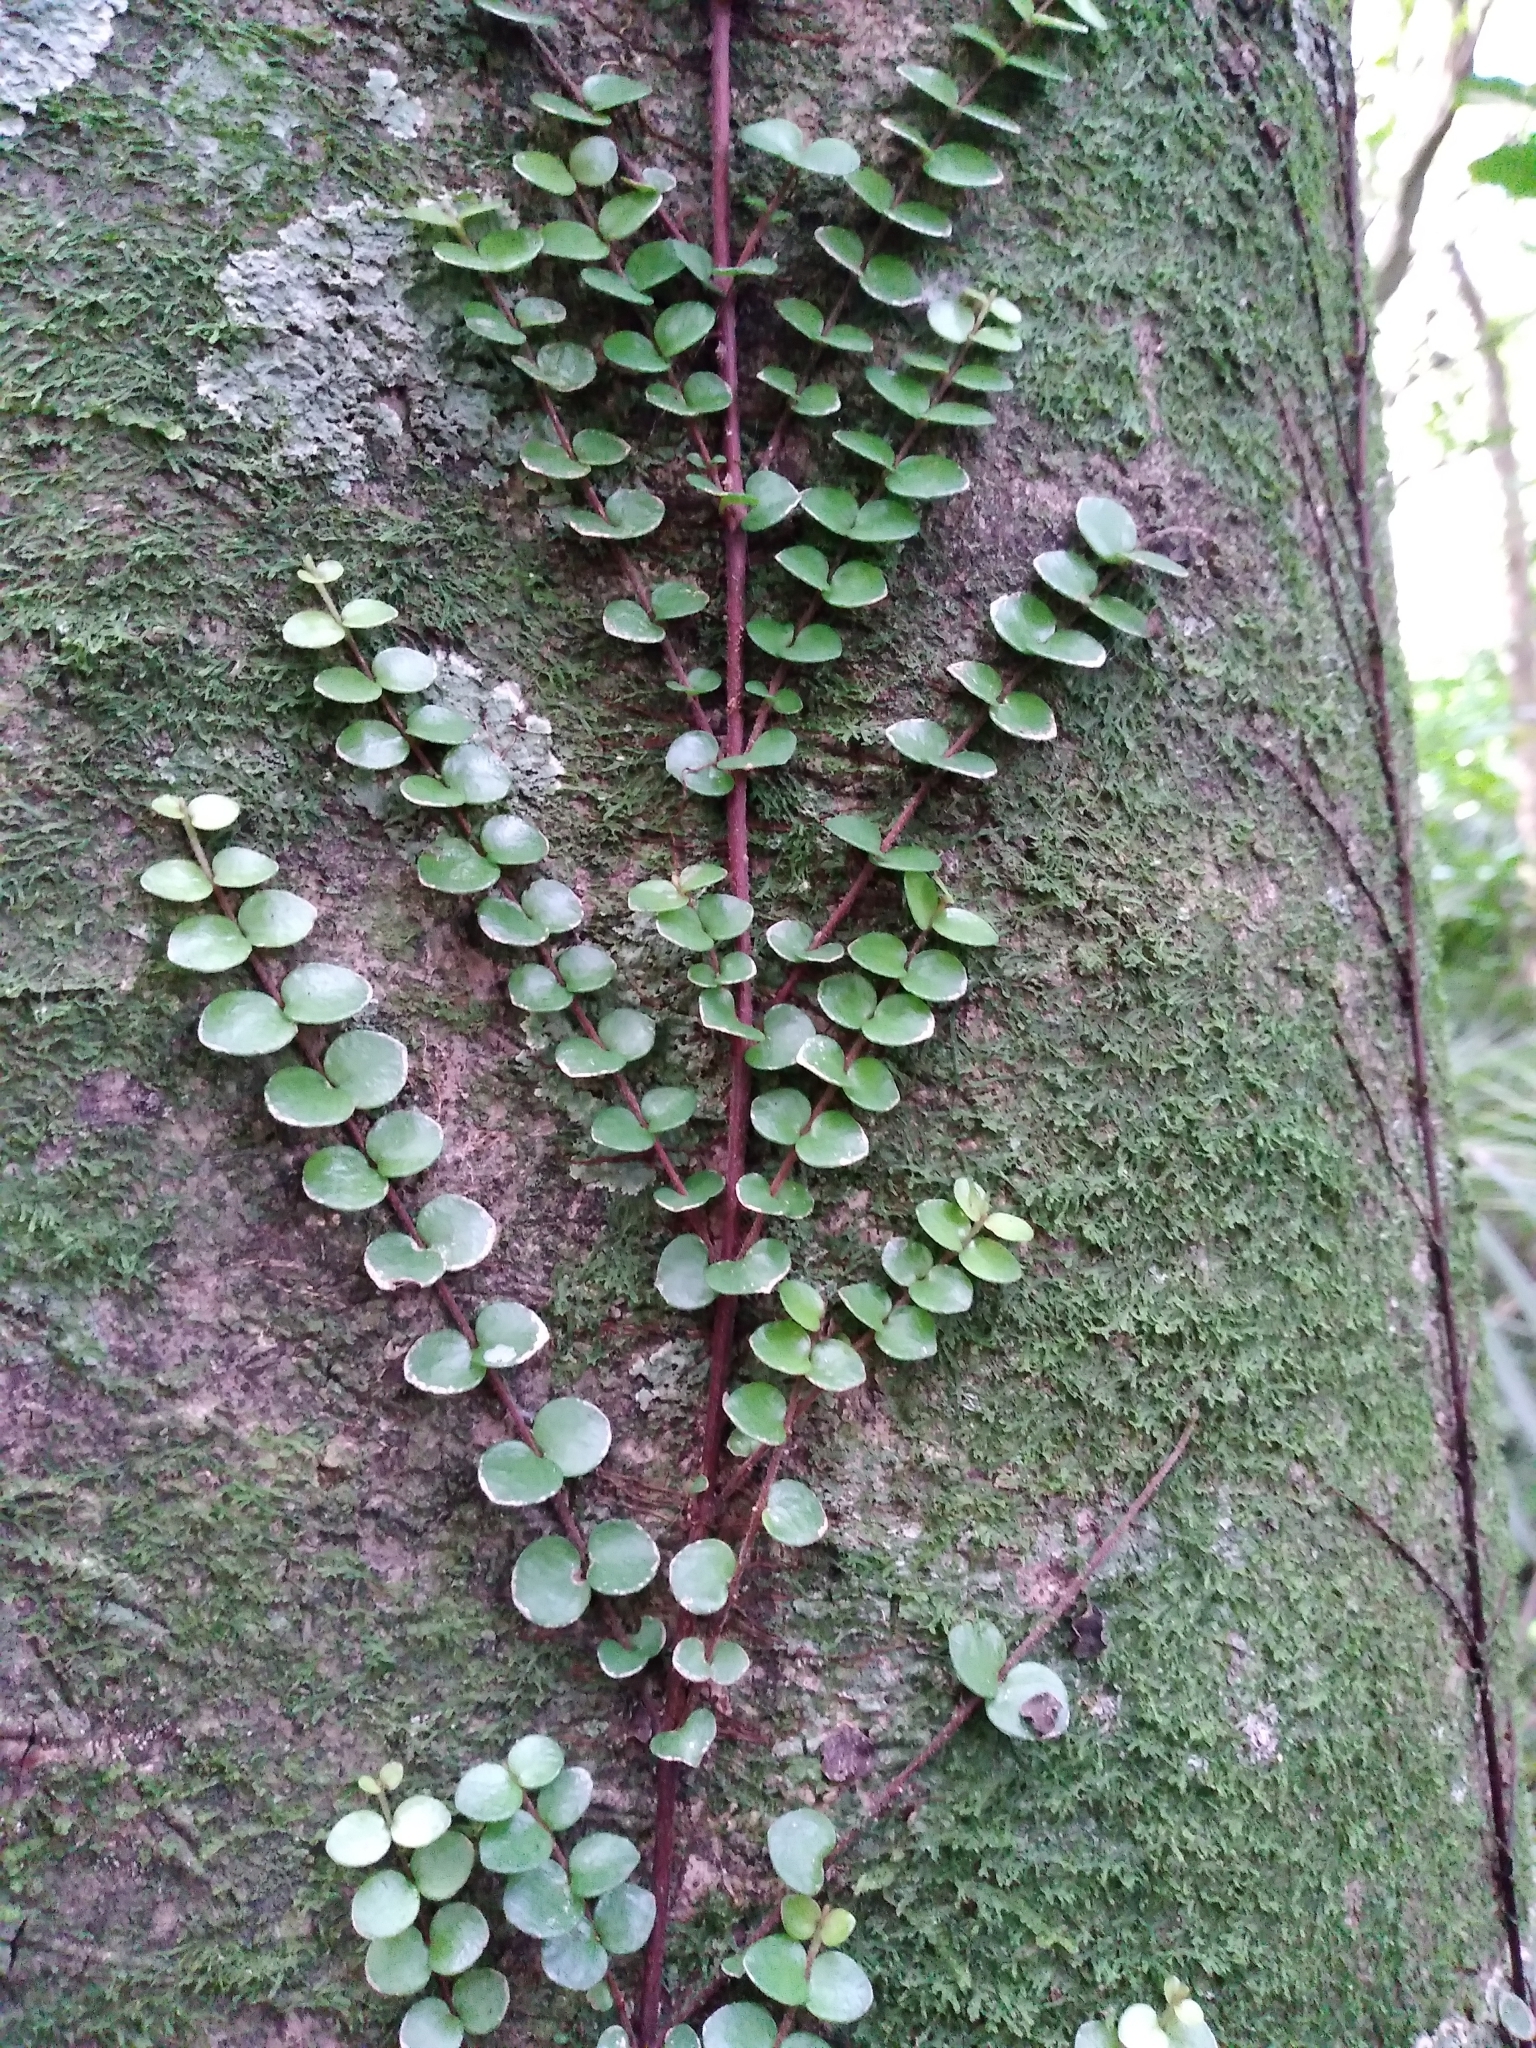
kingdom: Plantae
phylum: Tracheophyta
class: Magnoliopsida
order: Myrtales
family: Myrtaceae
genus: Metrosideros
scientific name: Metrosideros perforata
